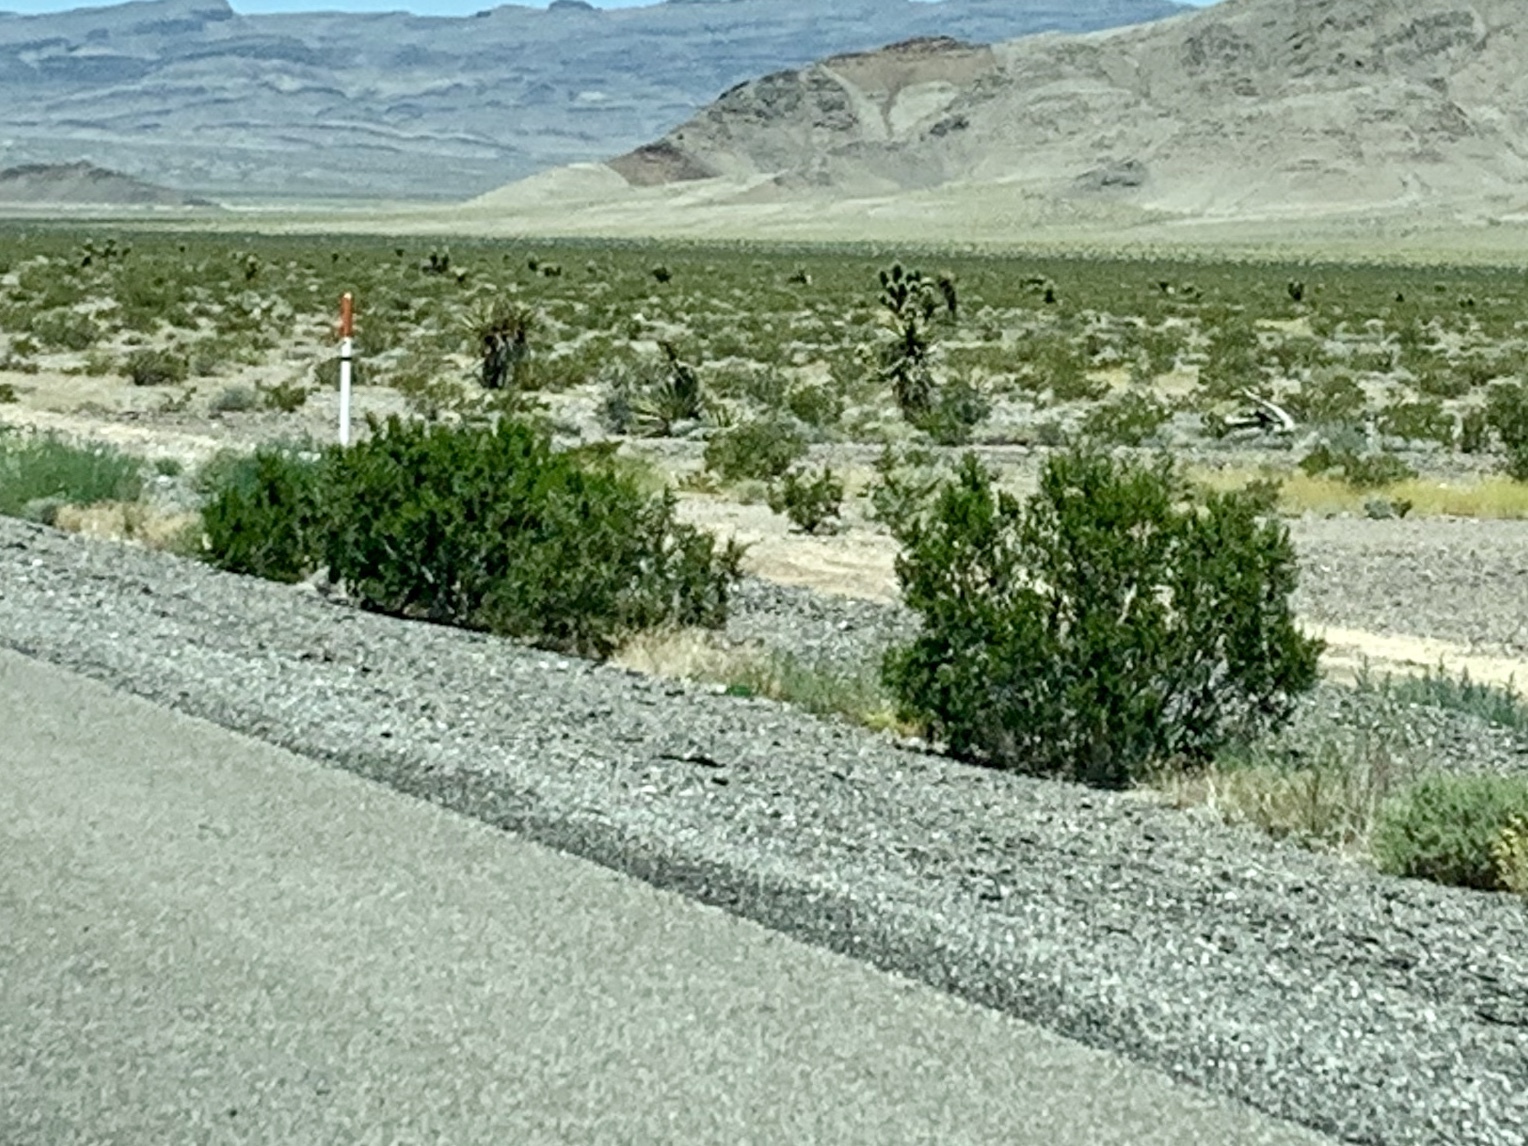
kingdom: Plantae
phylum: Tracheophyta
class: Magnoliopsida
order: Zygophyllales
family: Zygophyllaceae
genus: Larrea
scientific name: Larrea tridentata
